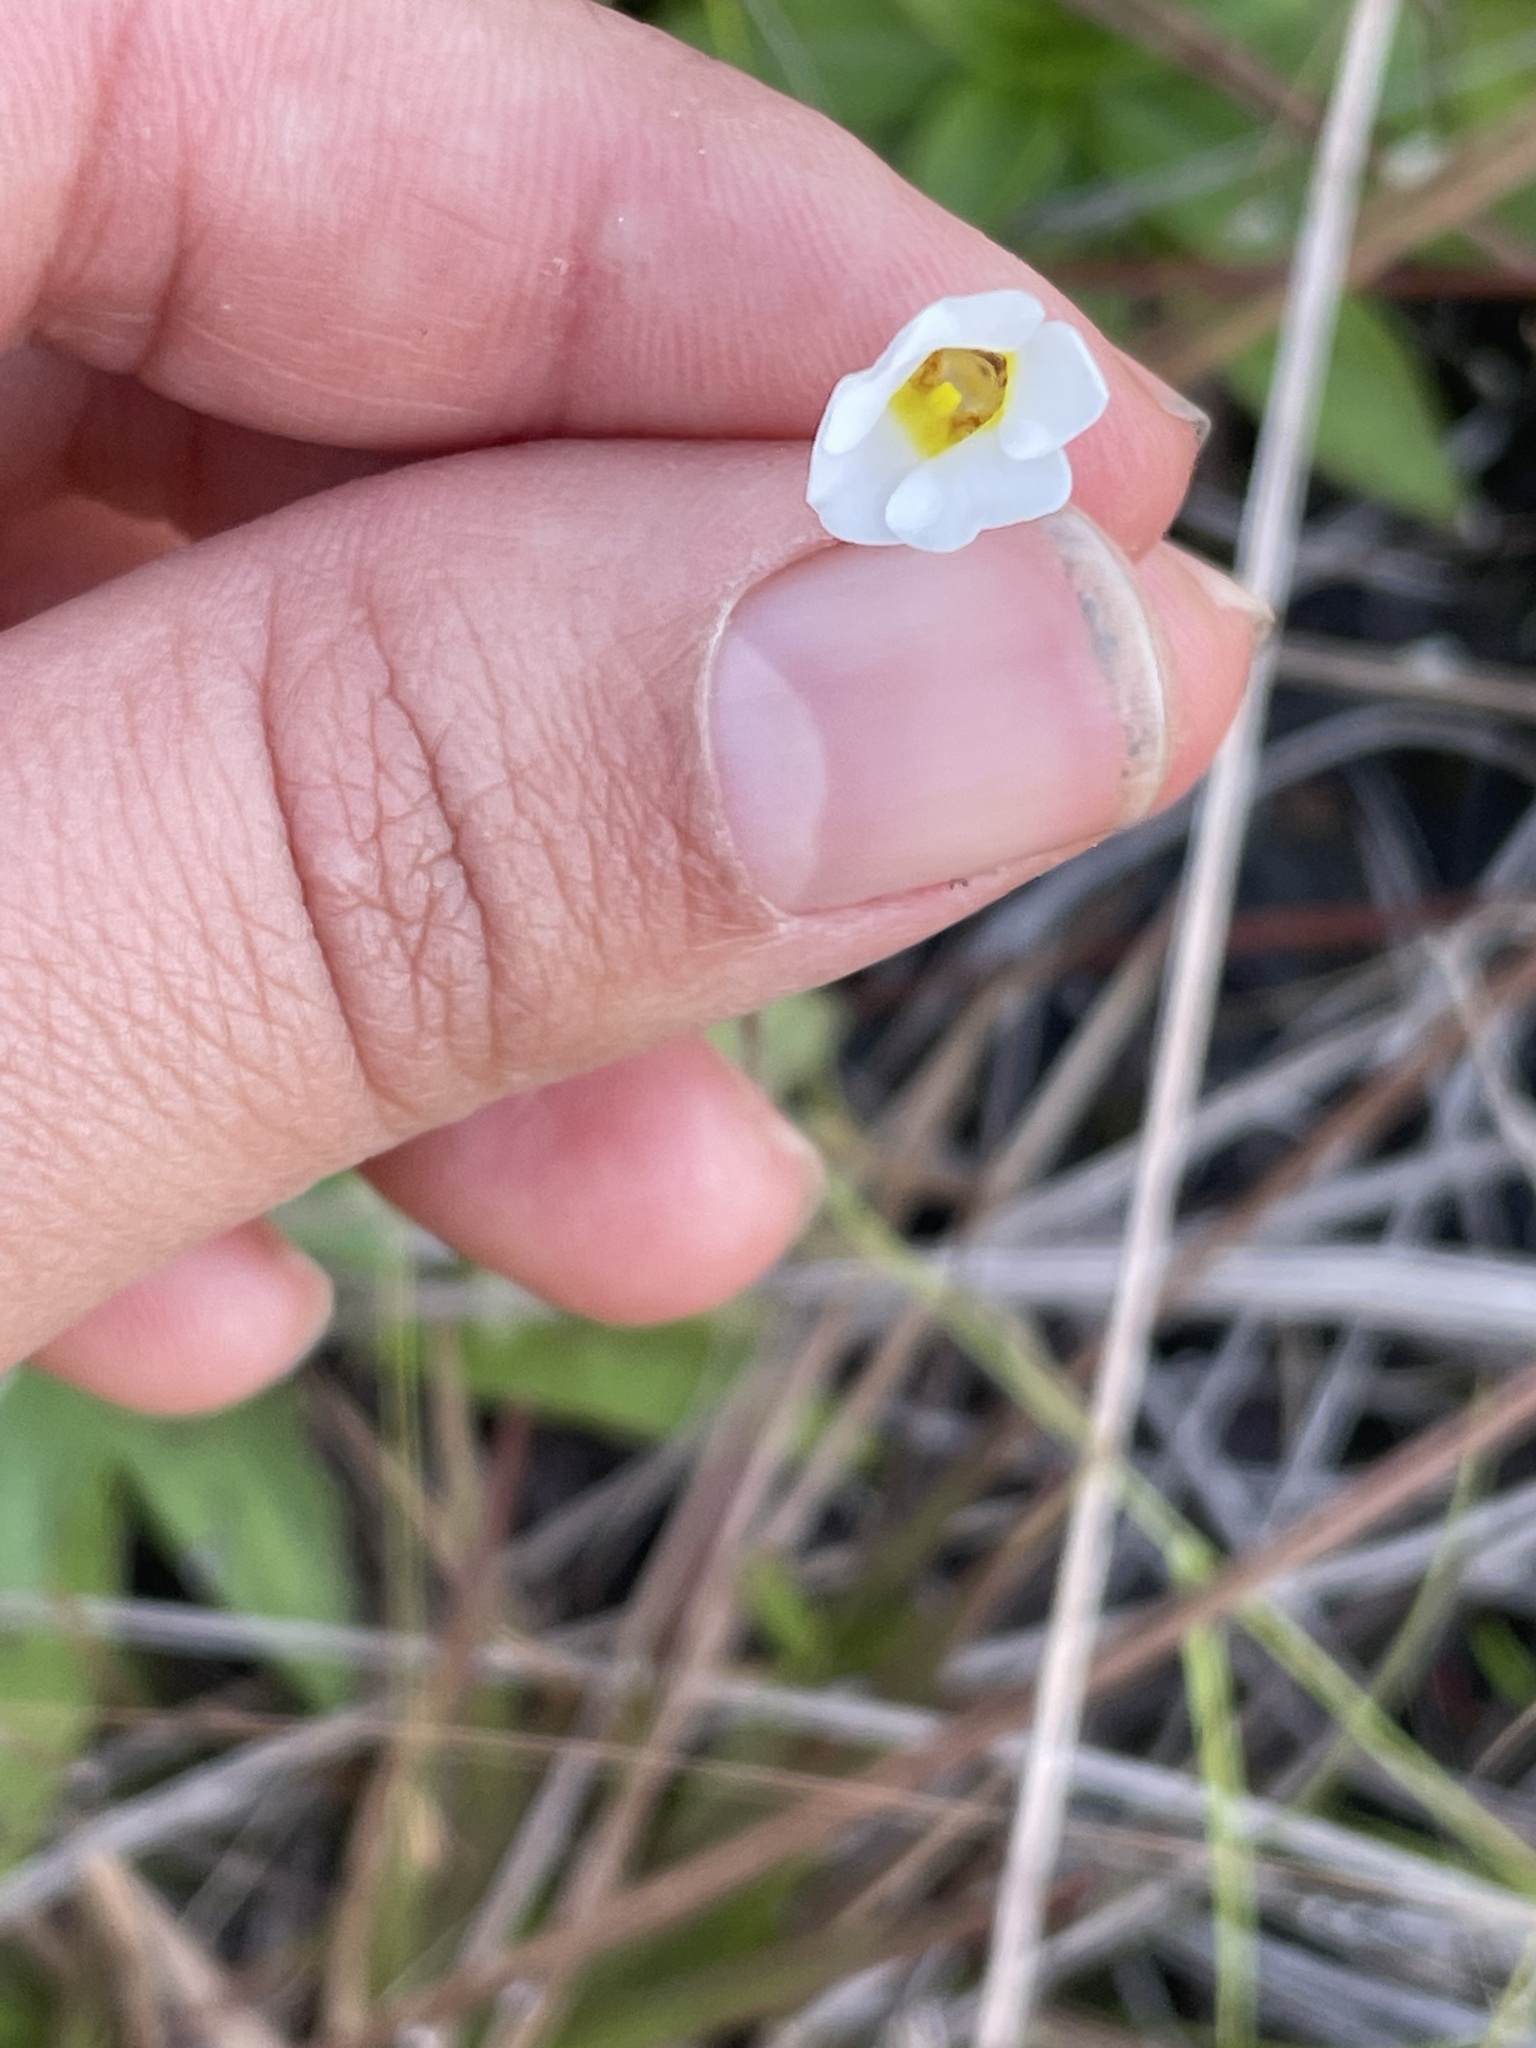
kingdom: Plantae
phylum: Tracheophyta
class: Magnoliopsida
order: Lamiales
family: Lentibulariaceae
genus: Pinguicula
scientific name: Pinguicula pumila
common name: Small butterwort
